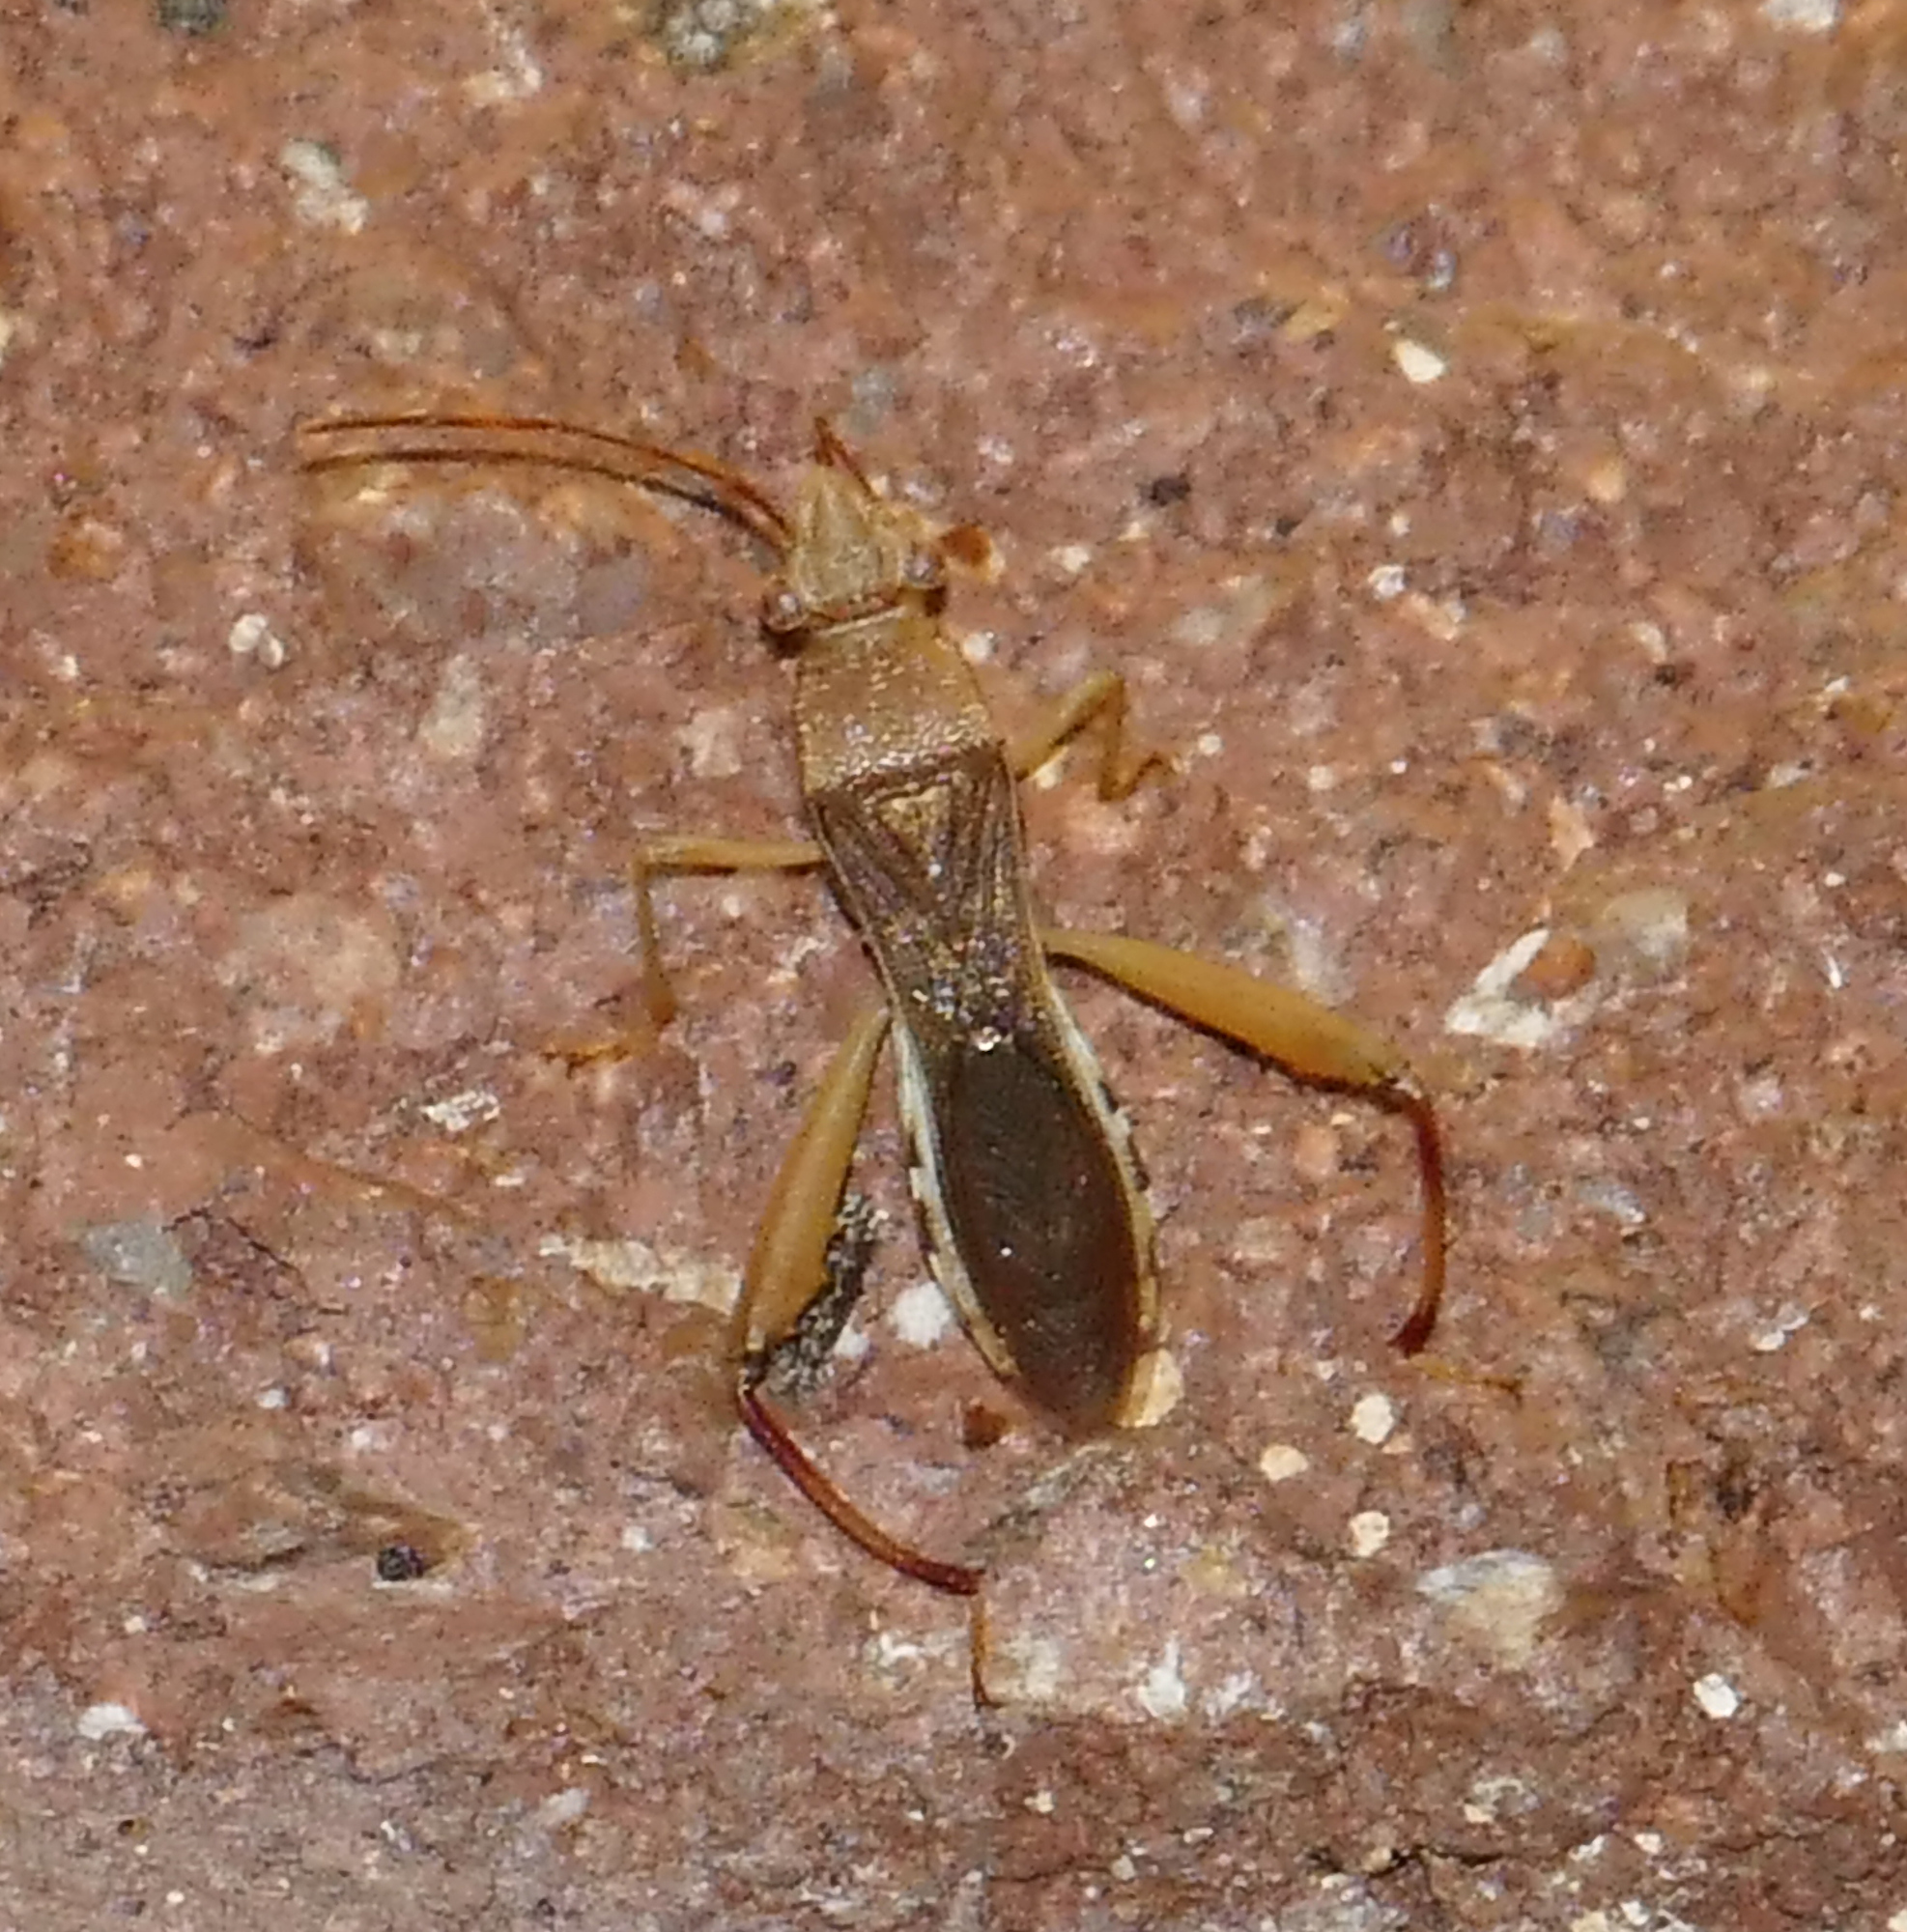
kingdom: Animalia
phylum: Arthropoda
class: Insecta
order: Hemiptera
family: Alydidae
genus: Hyalymenus
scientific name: Hyalymenus tarsatus
